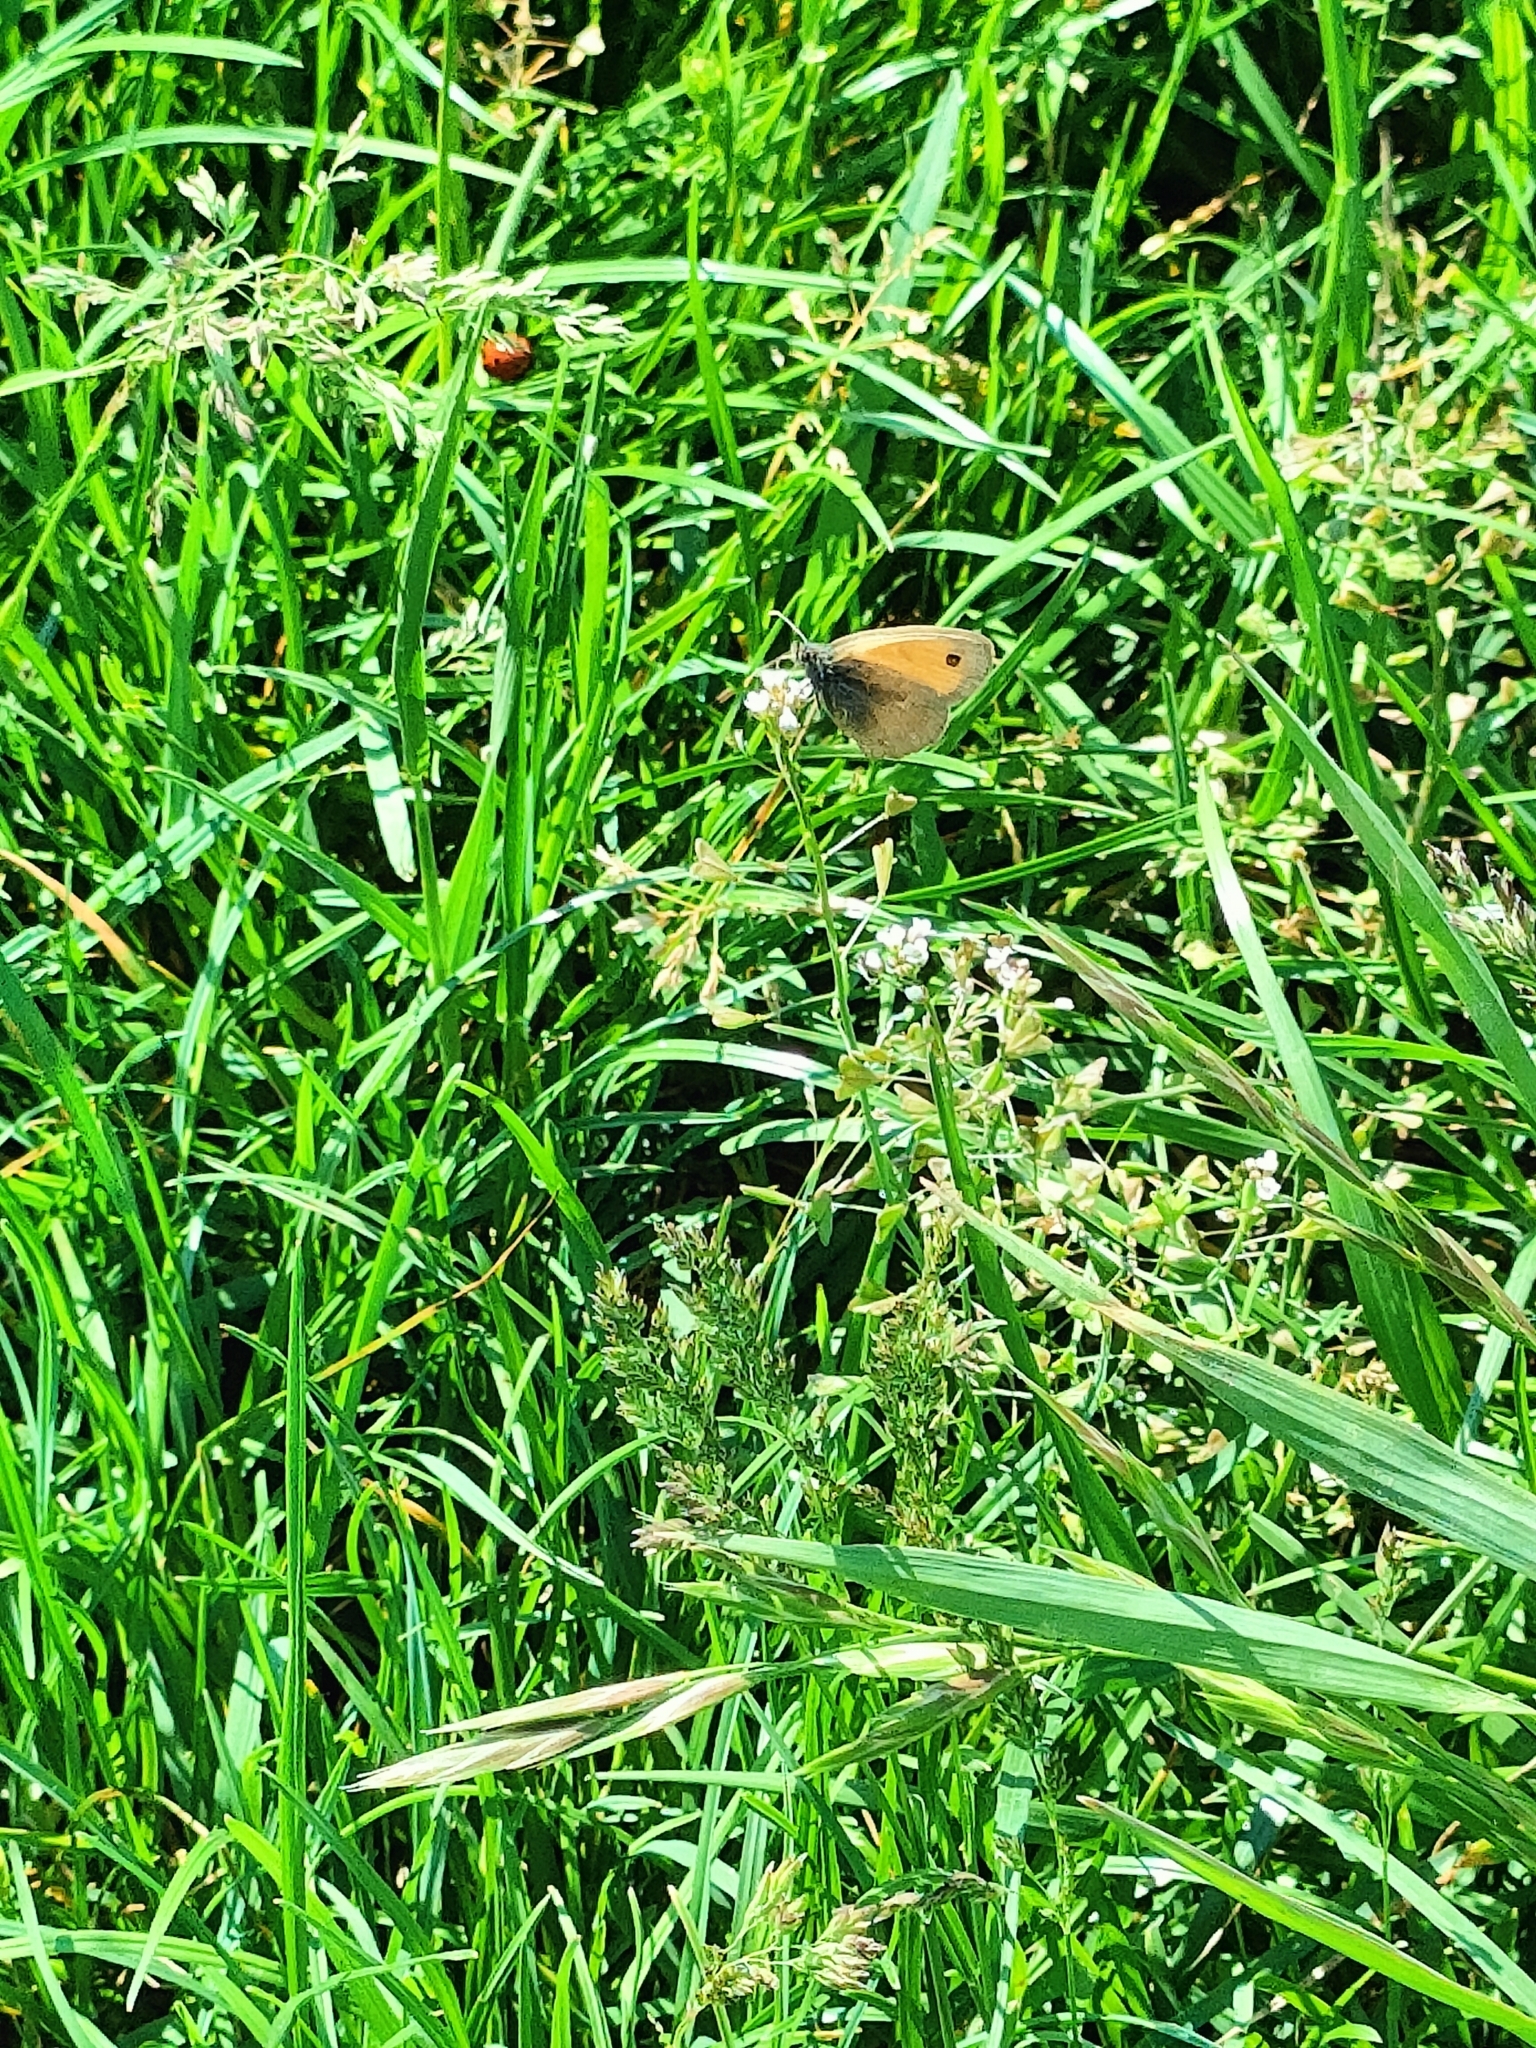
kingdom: Animalia
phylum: Arthropoda
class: Insecta
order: Lepidoptera
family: Nymphalidae
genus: Coenonympha
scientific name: Coenonympha pamphilus
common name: Small heath
